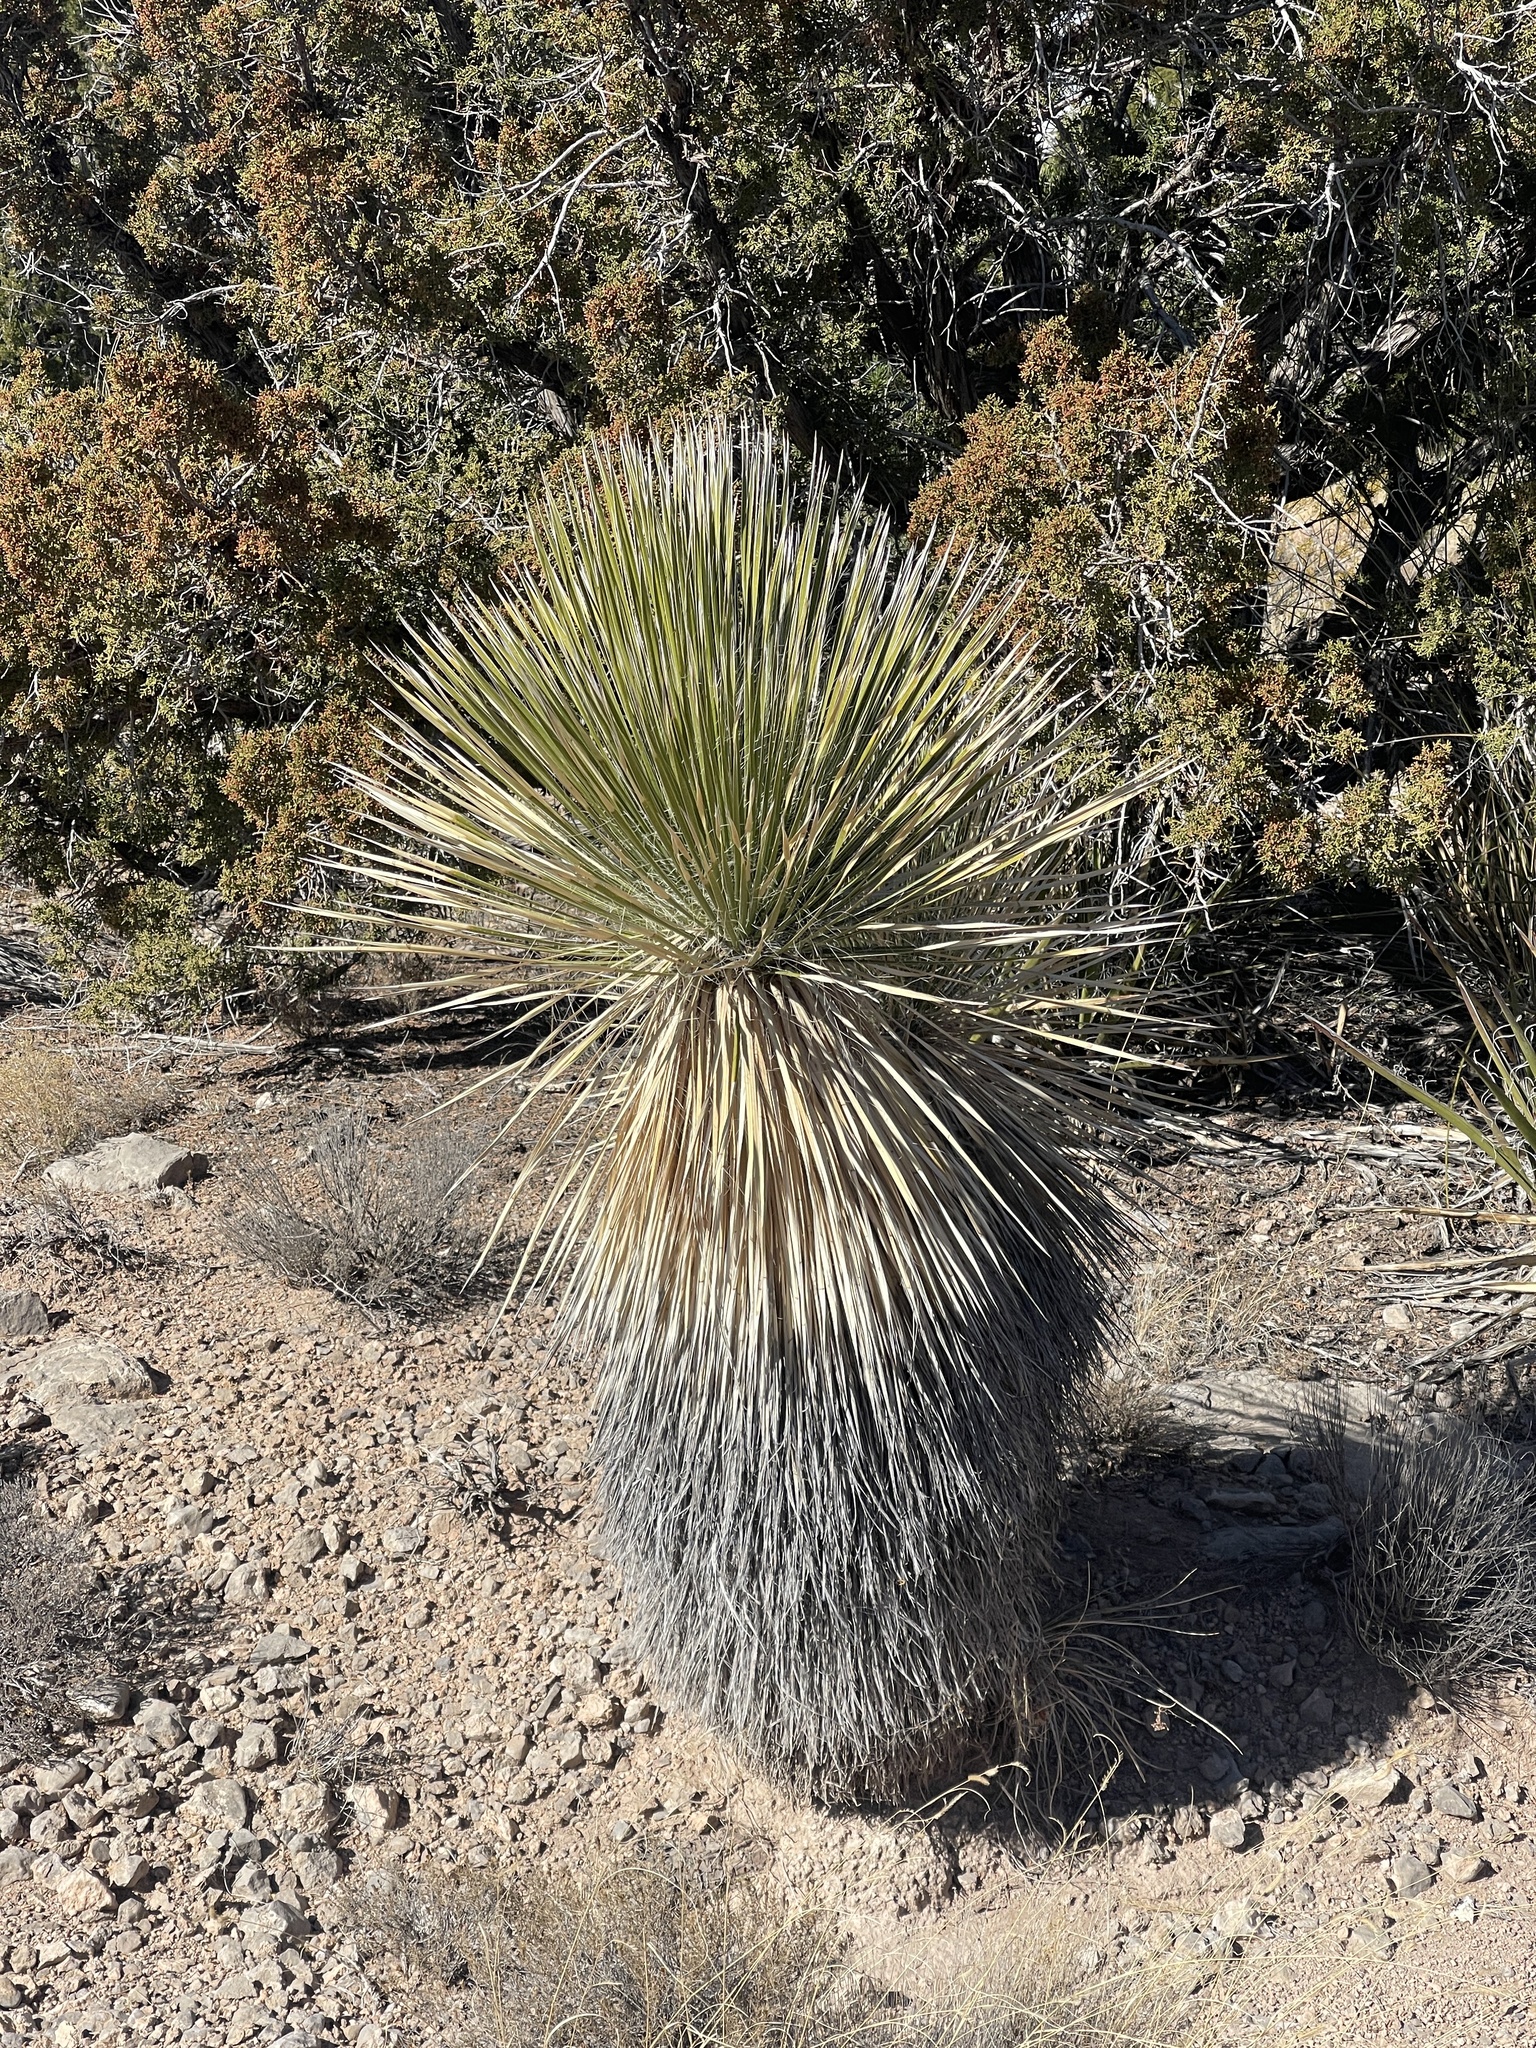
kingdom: Plantae
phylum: Tracheophyta
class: Liliopsida
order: Asparagales
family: Asparagaceae
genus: Yucca
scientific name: Yucca elata
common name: Palmella
